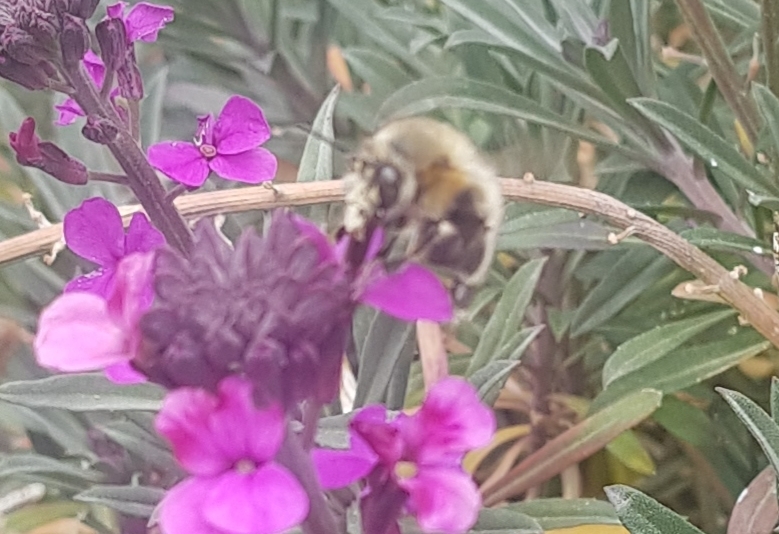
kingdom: Animalia
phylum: Arthropoda
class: Insecta
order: Hymenoptera
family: Apidae
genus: Anthophora
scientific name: Anthophora plumipes
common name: Hairy-footed flower bee
